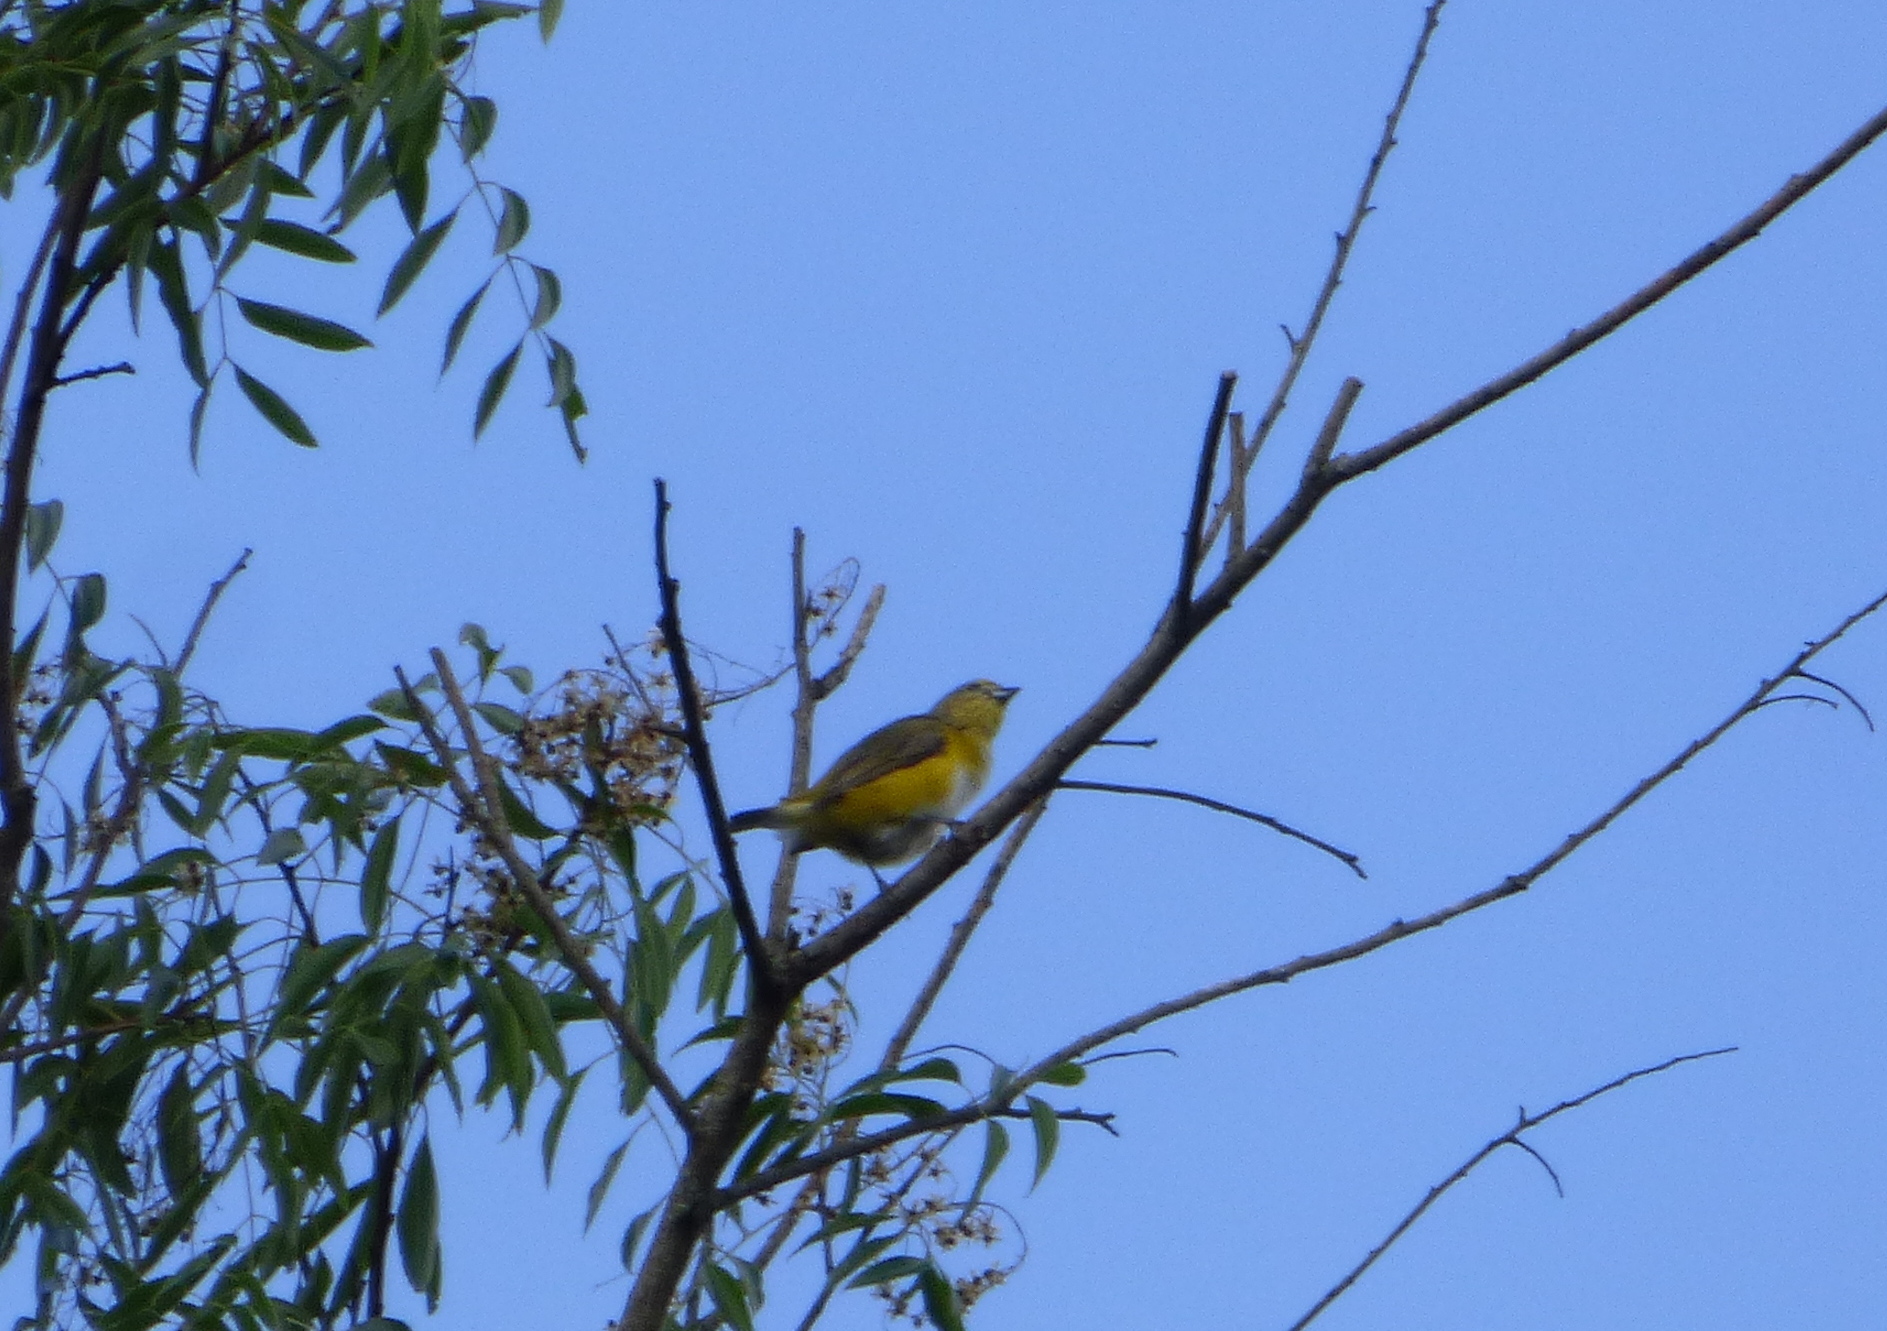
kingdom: Animalia
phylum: Chordata
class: Aves
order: Passeriformes
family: Fringillidae
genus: Euphonia
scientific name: Euphonia chlorotica
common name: Purple-throated euphonia
